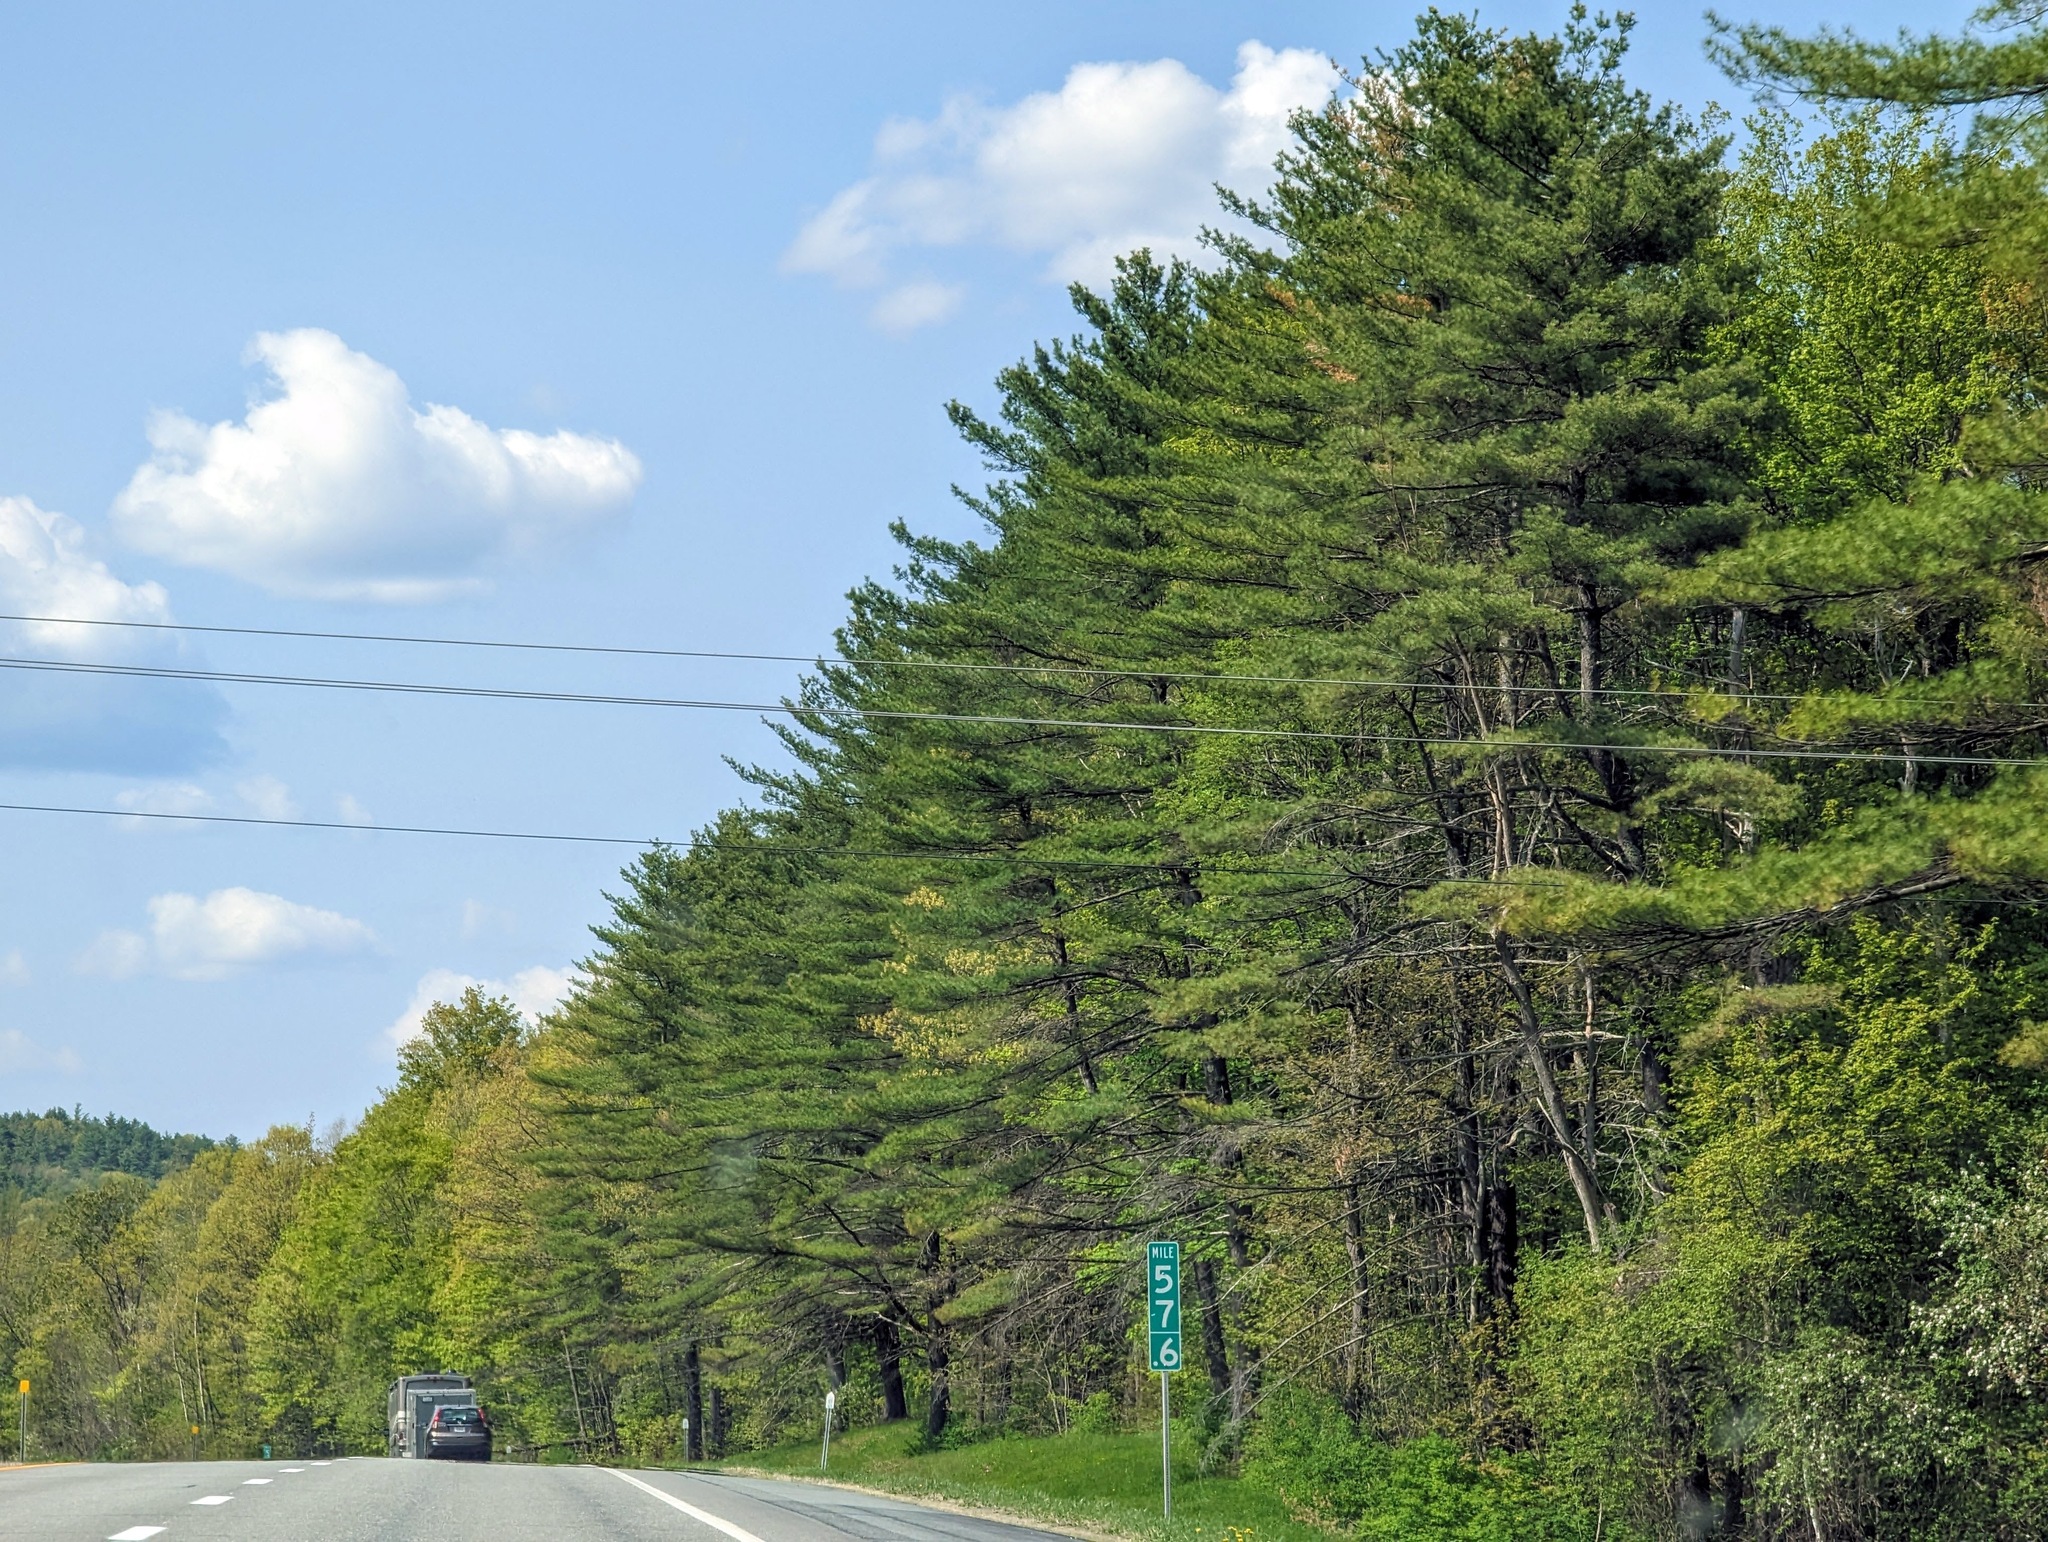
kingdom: Plantae
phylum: Tracheophyta
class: Pinopsida
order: Pinales
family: Pinaceae
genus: Pinus
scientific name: Pinus strobus
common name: Weymouth pine
